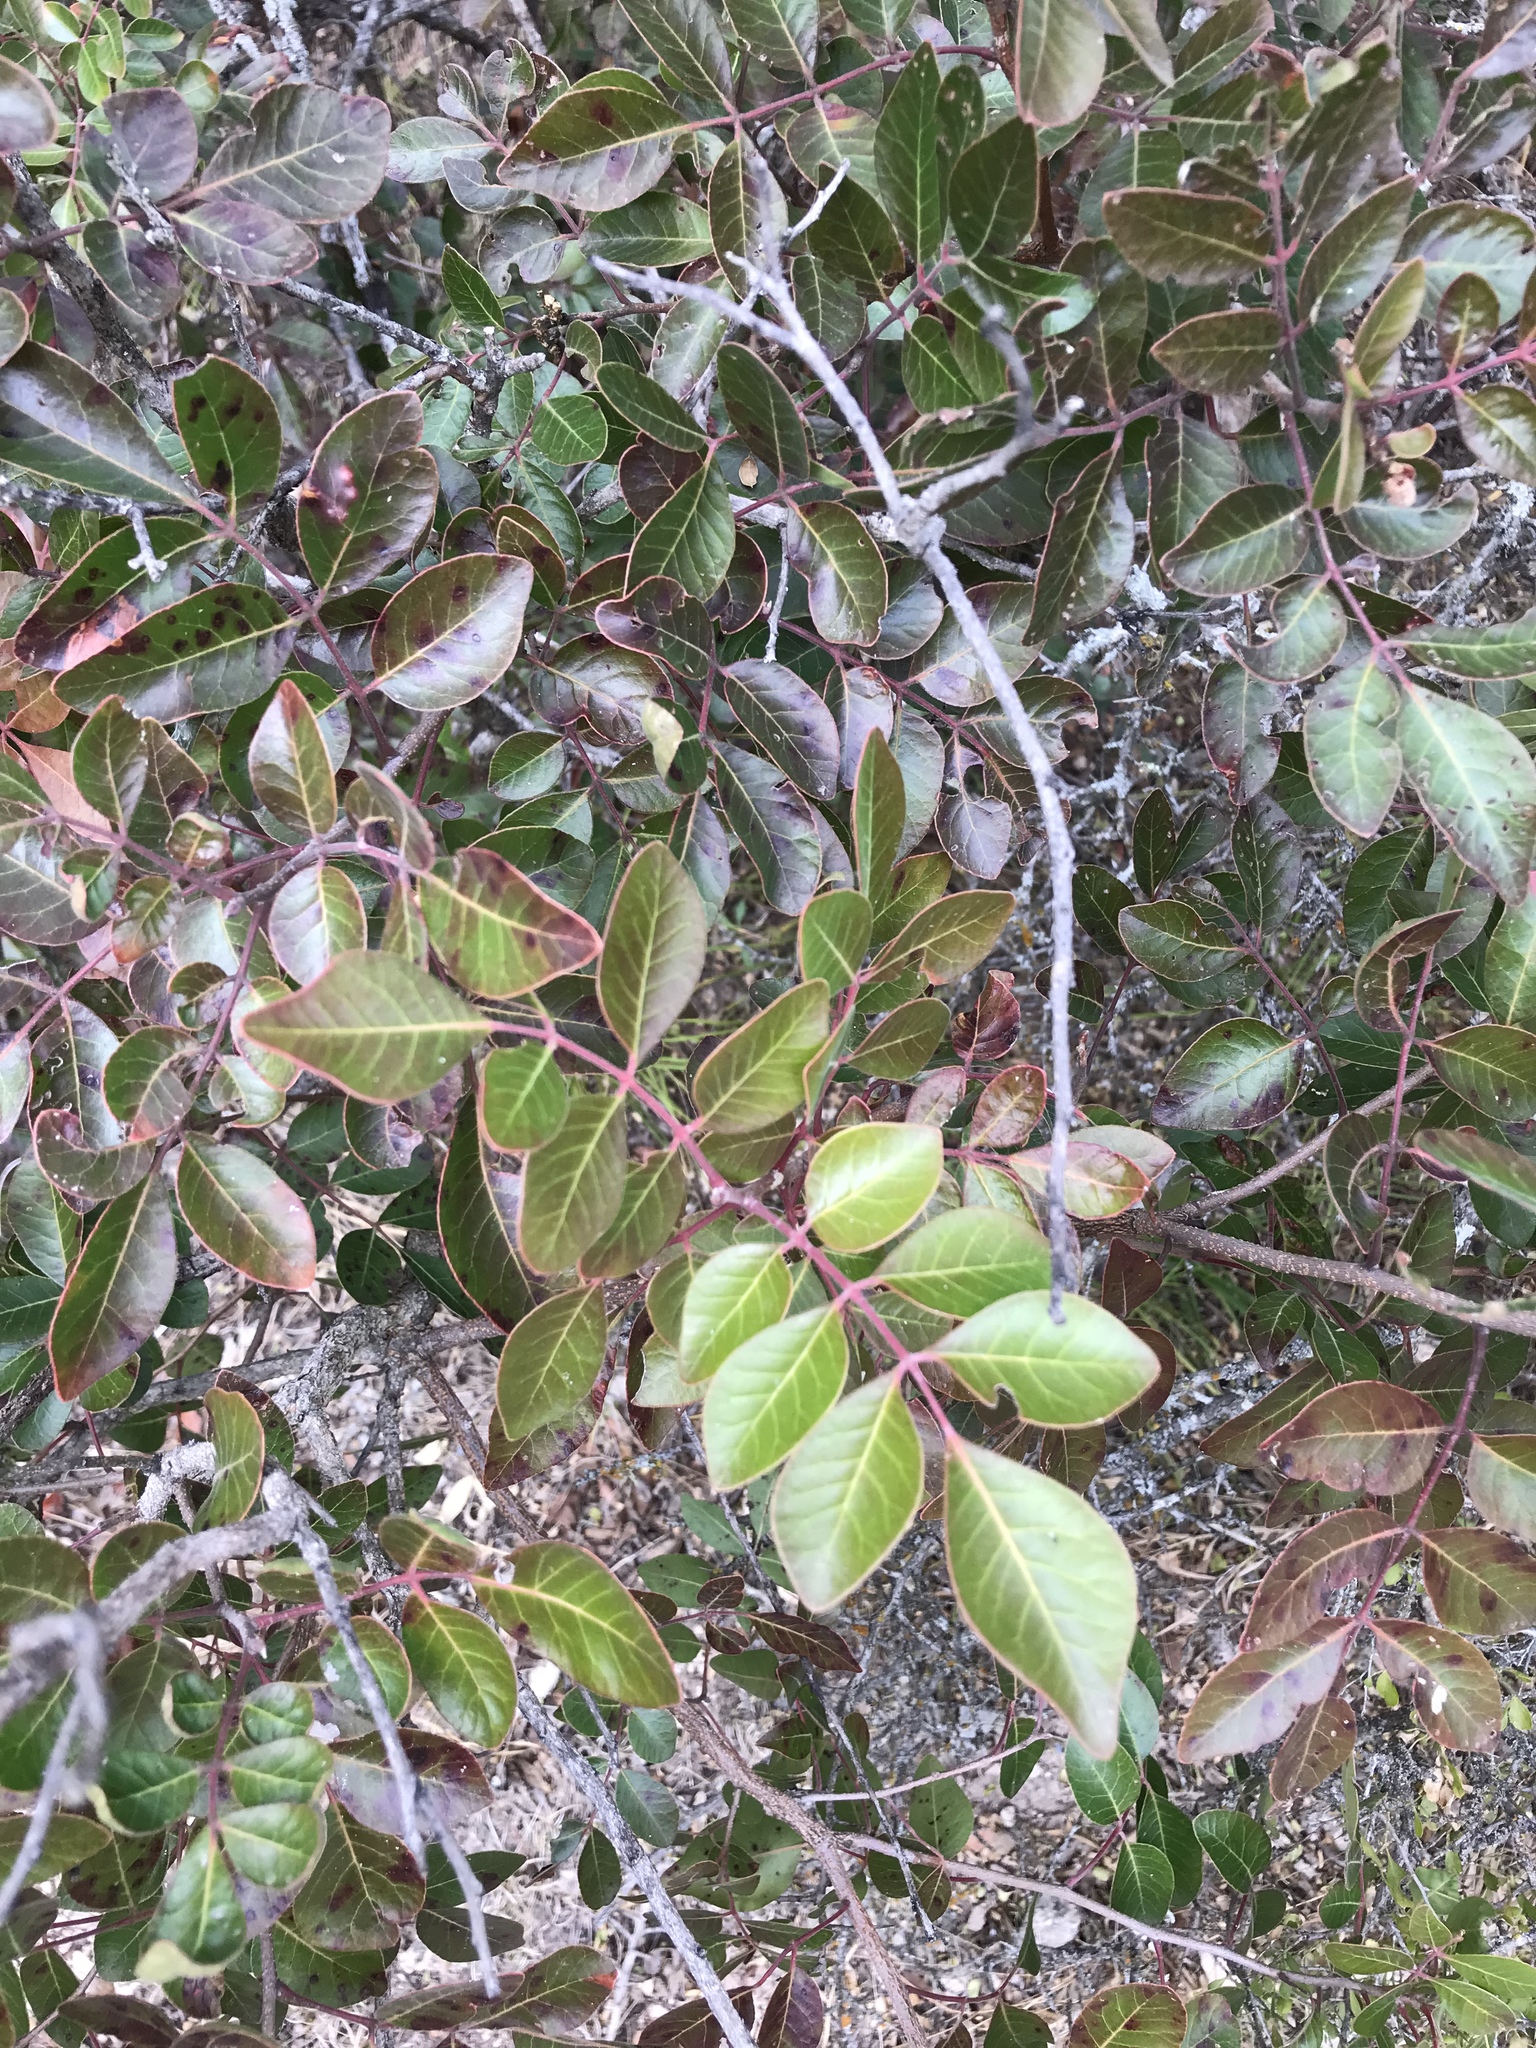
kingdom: Plantae
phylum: Tracheophyta
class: Magnoliopsida
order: Sapindales
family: Anacardiaceae
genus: Rhus
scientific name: Rhus virens
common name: Evergreen sumac
